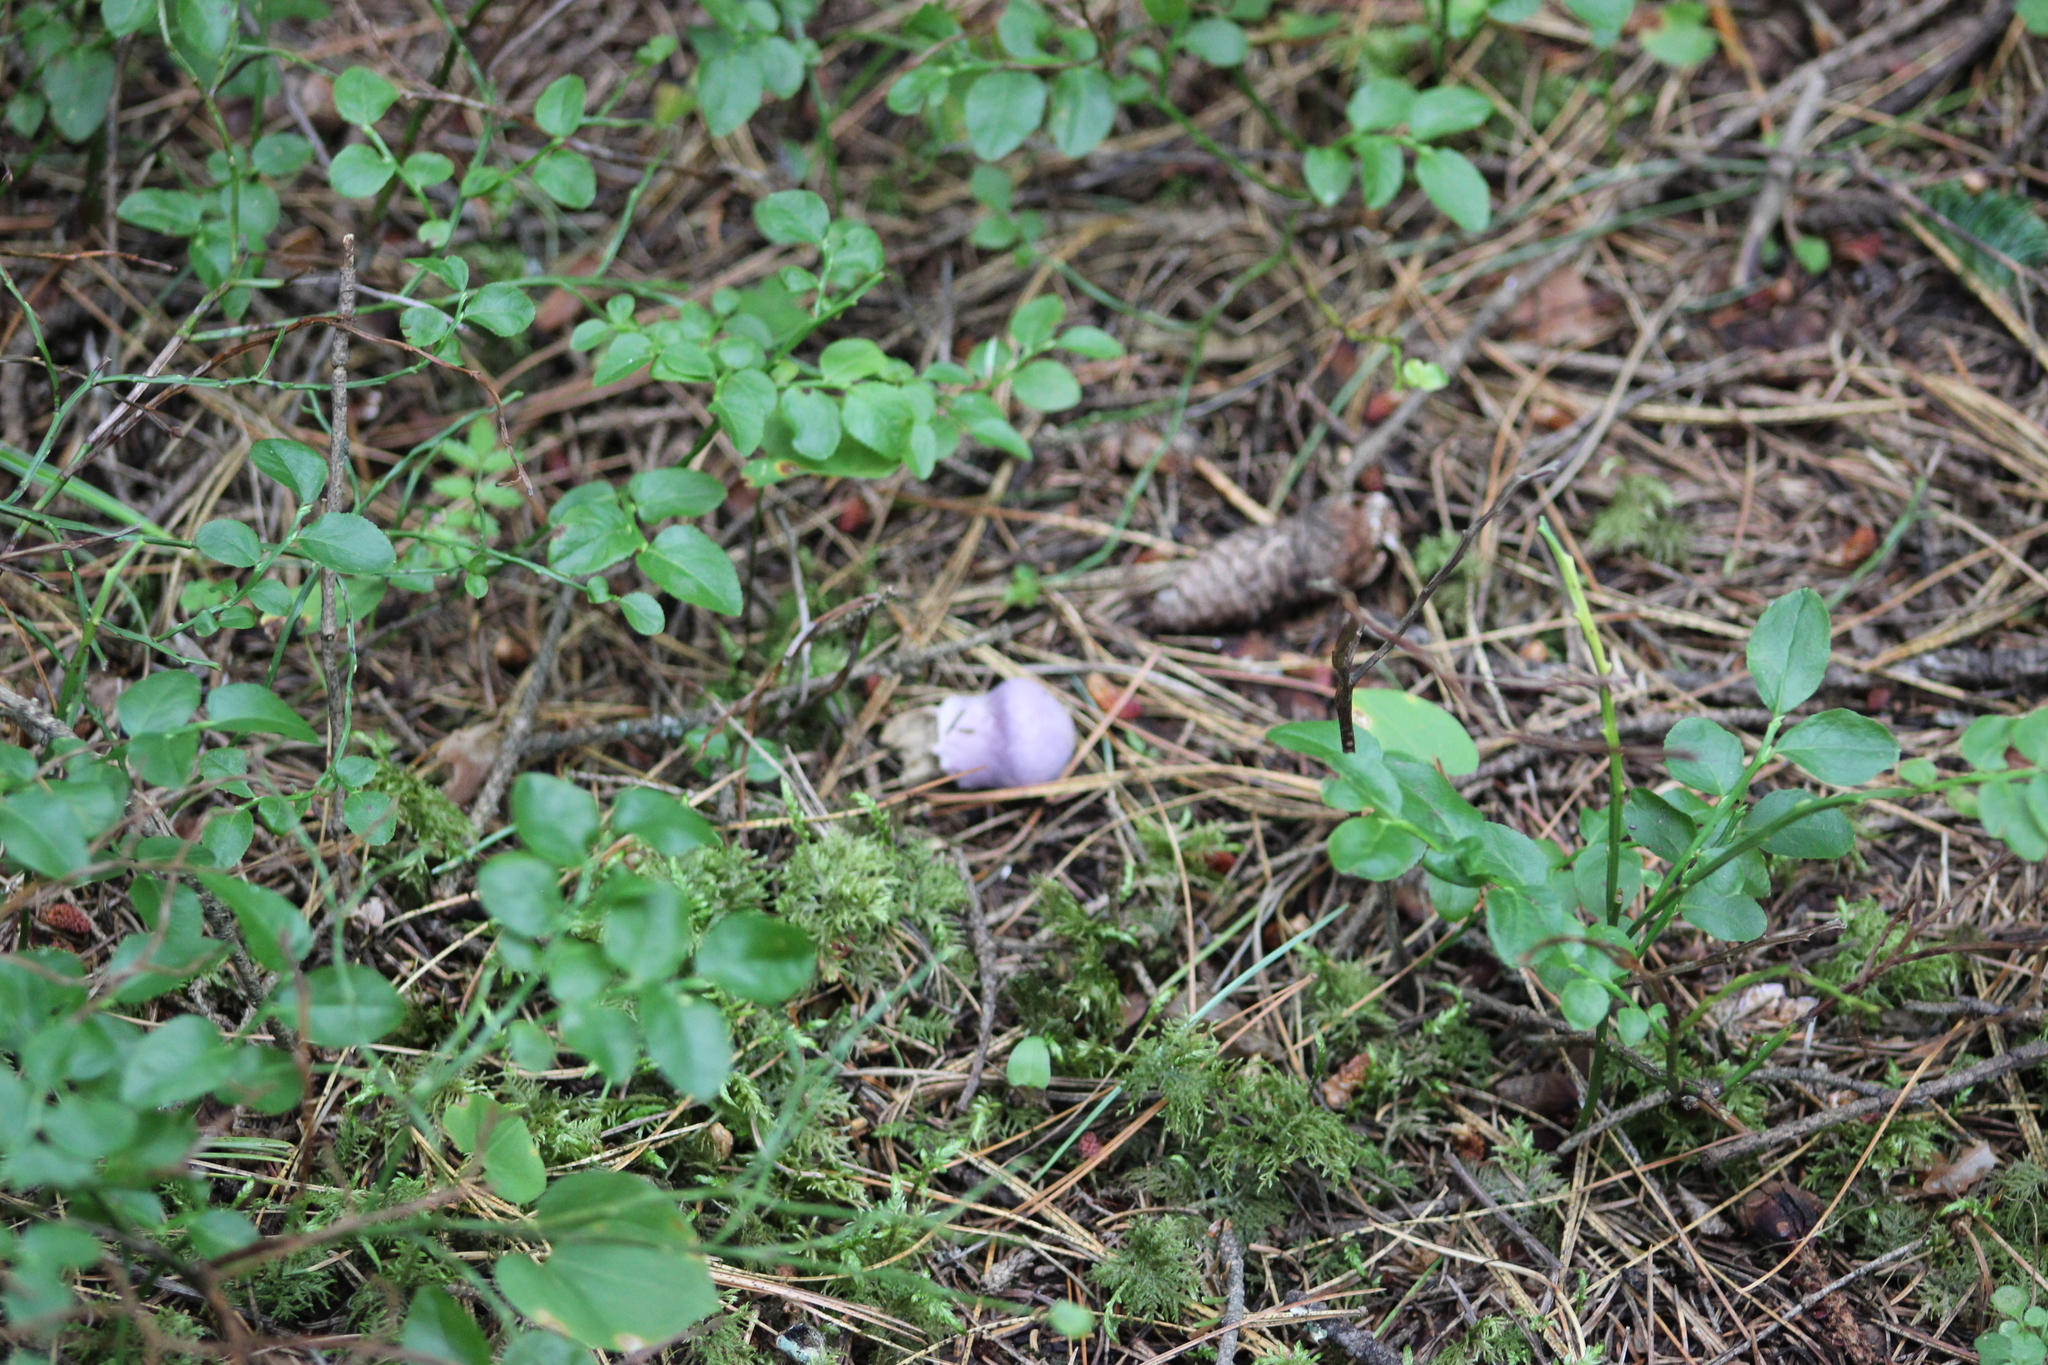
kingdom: Fungi
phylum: Basidiomycota
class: Agaricomycetes
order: Agaricales
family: Cortinariaceae
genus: Cortinarius
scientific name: Cortinarius camphoratus
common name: Goatcheese webcap
